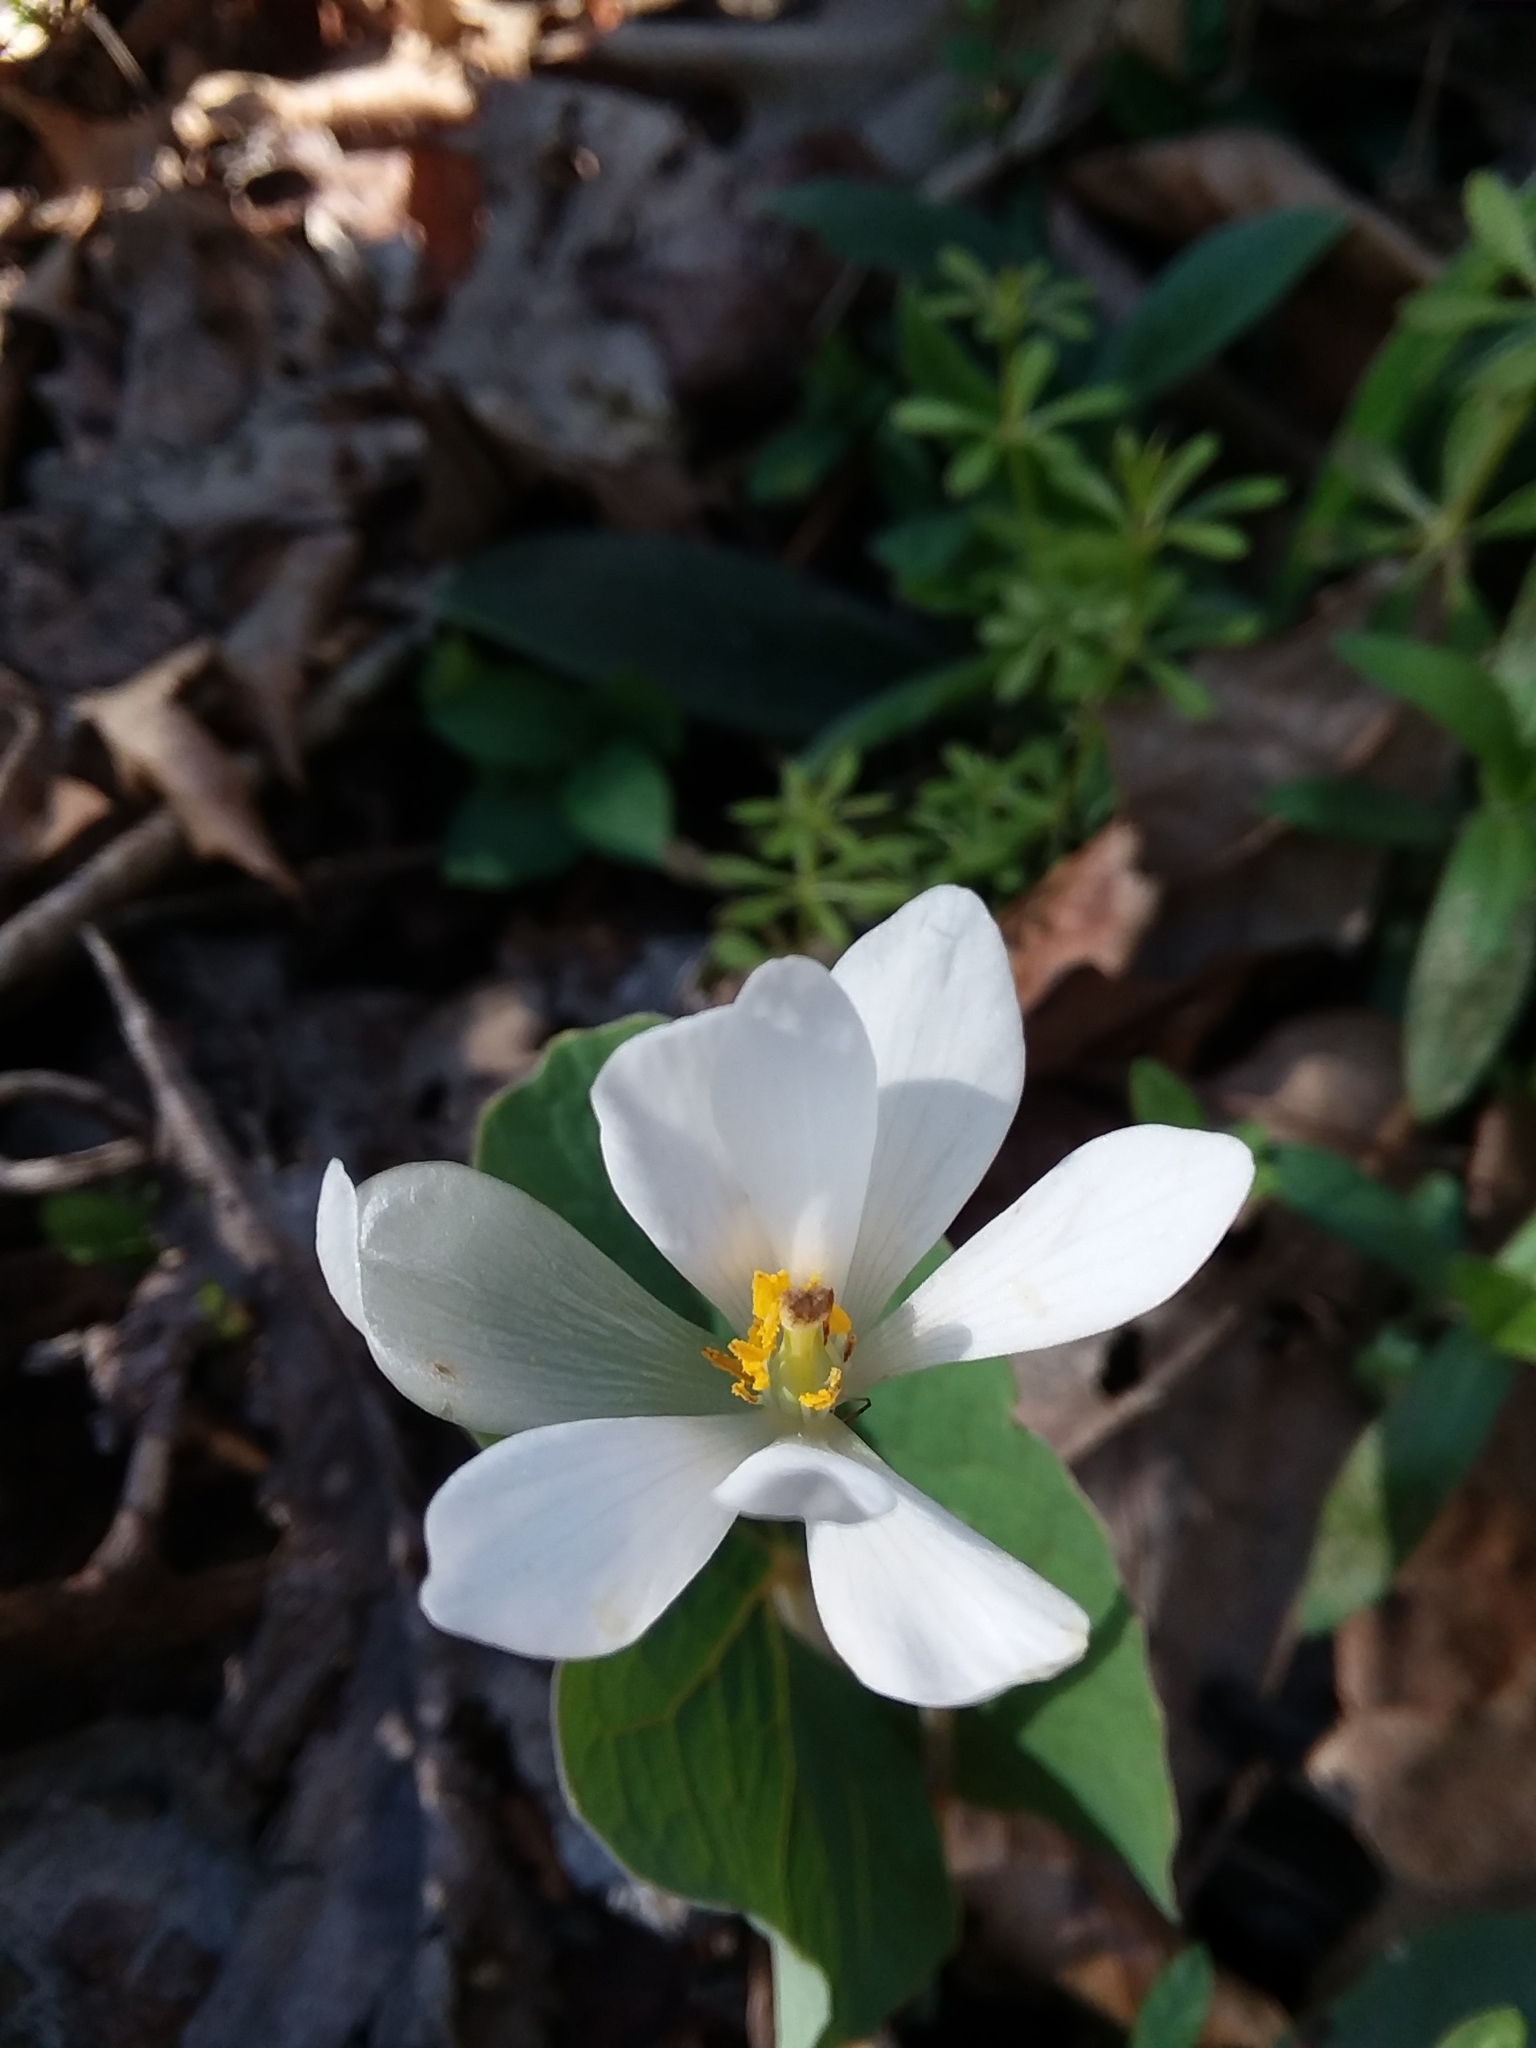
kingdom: Plantae
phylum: Tracheophyta
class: Magnoliopsida
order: Ranunculales
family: Papaveraceae
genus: Sanguinaria
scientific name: Sanguinaria canadensis
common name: Bloodroot
